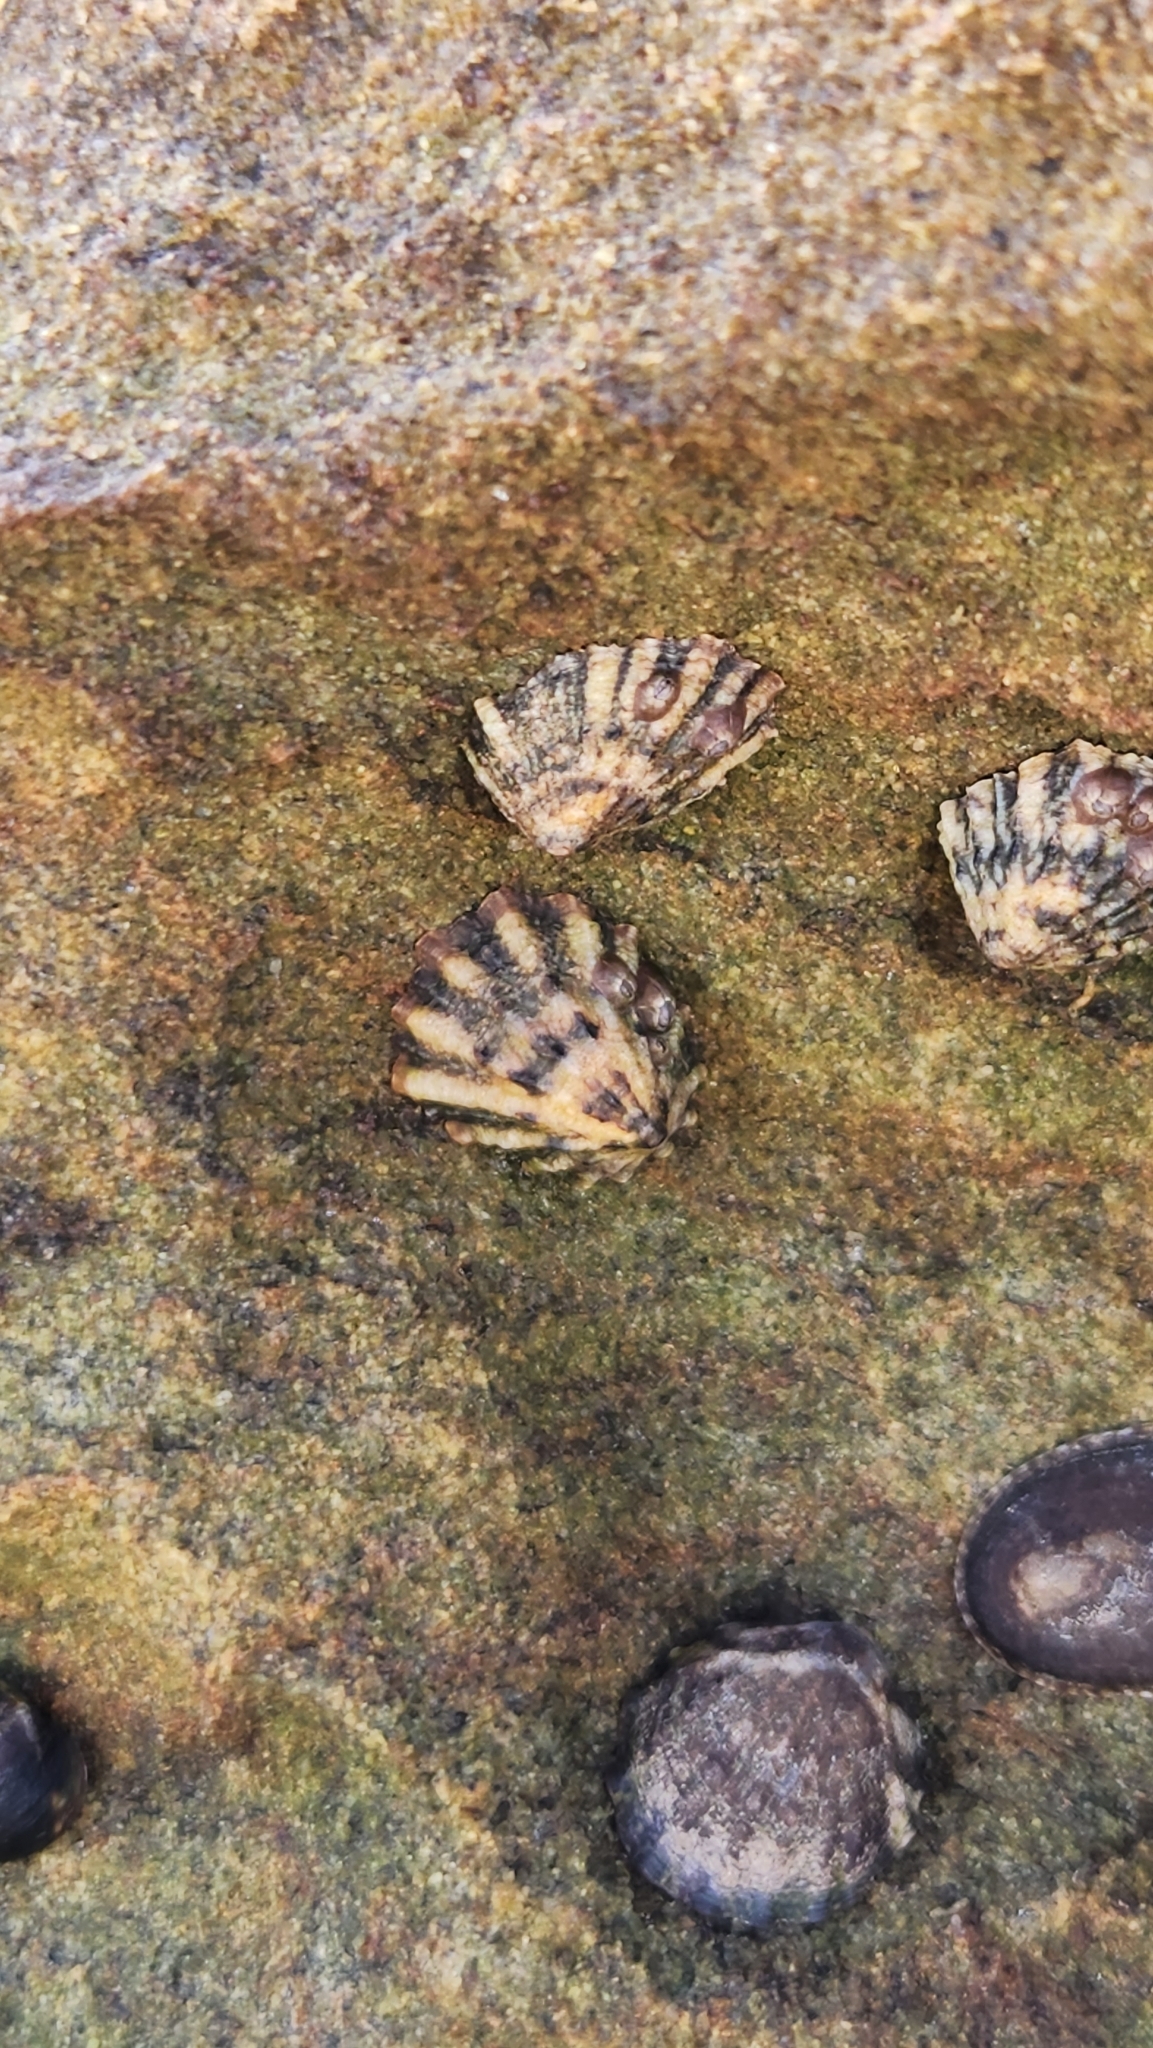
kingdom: Animalia
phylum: Mollusca
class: Gastropoda
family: Lottiidae
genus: Lottia
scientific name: Lottia scabra
